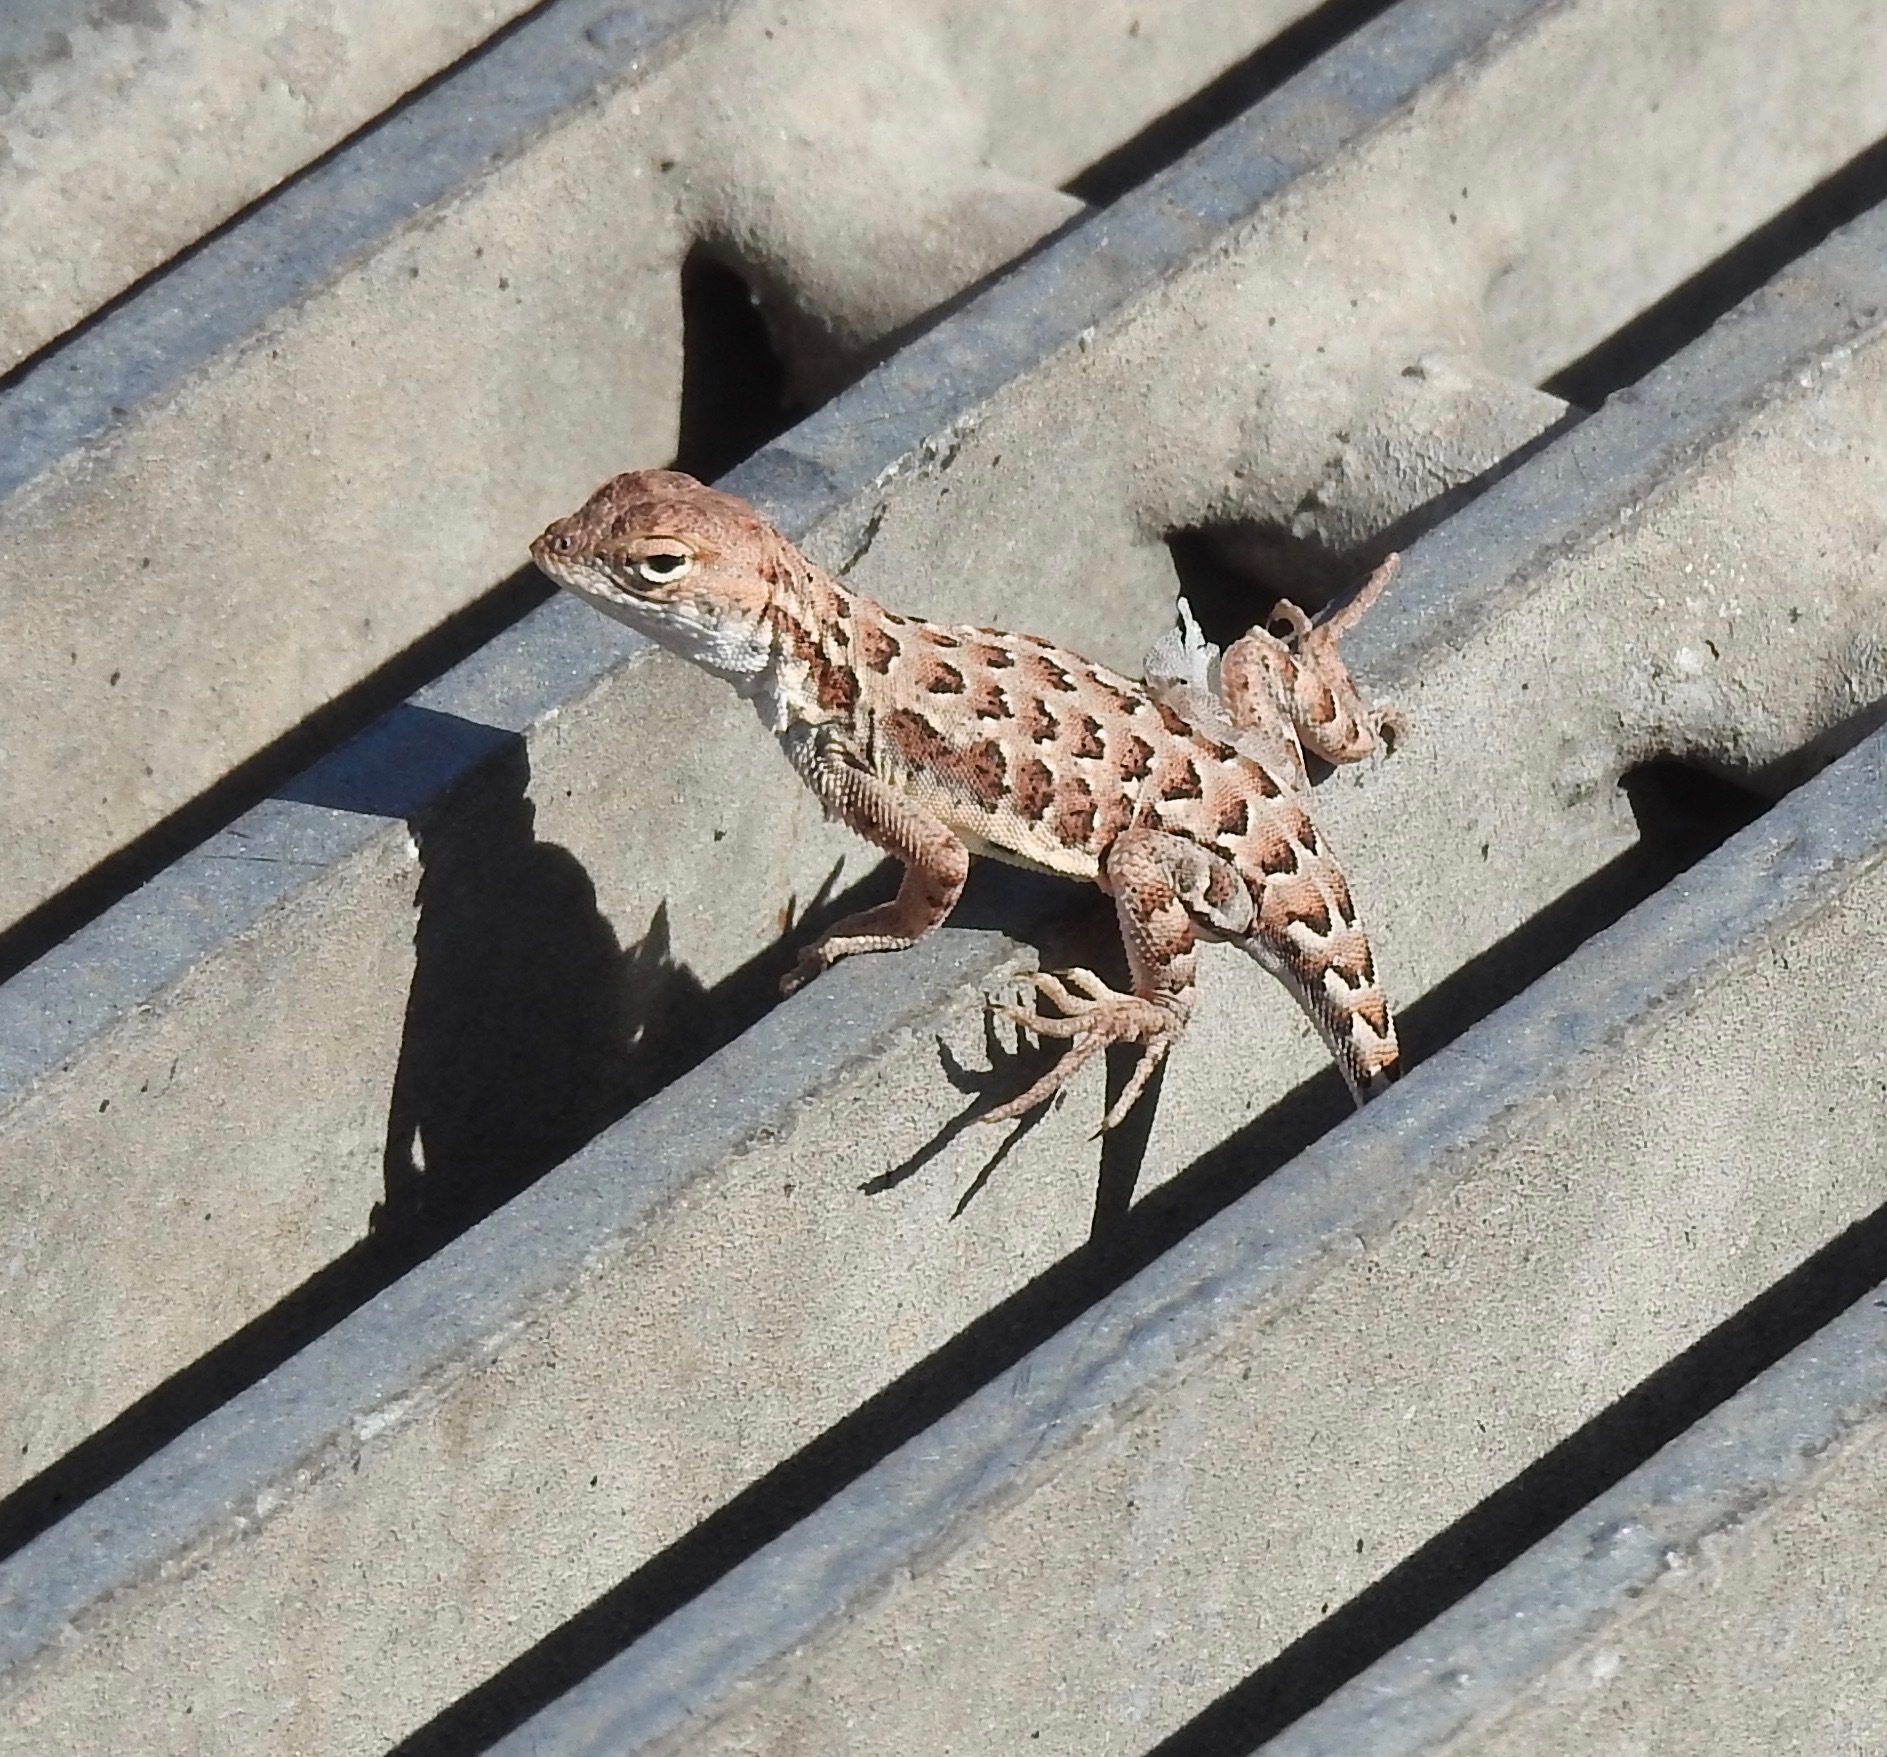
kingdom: Animalia
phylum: Chordata
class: Squamata
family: Phrynosomatidae
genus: Holbrookia
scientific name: Holbrookia elegans
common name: Elegant earless lizard
